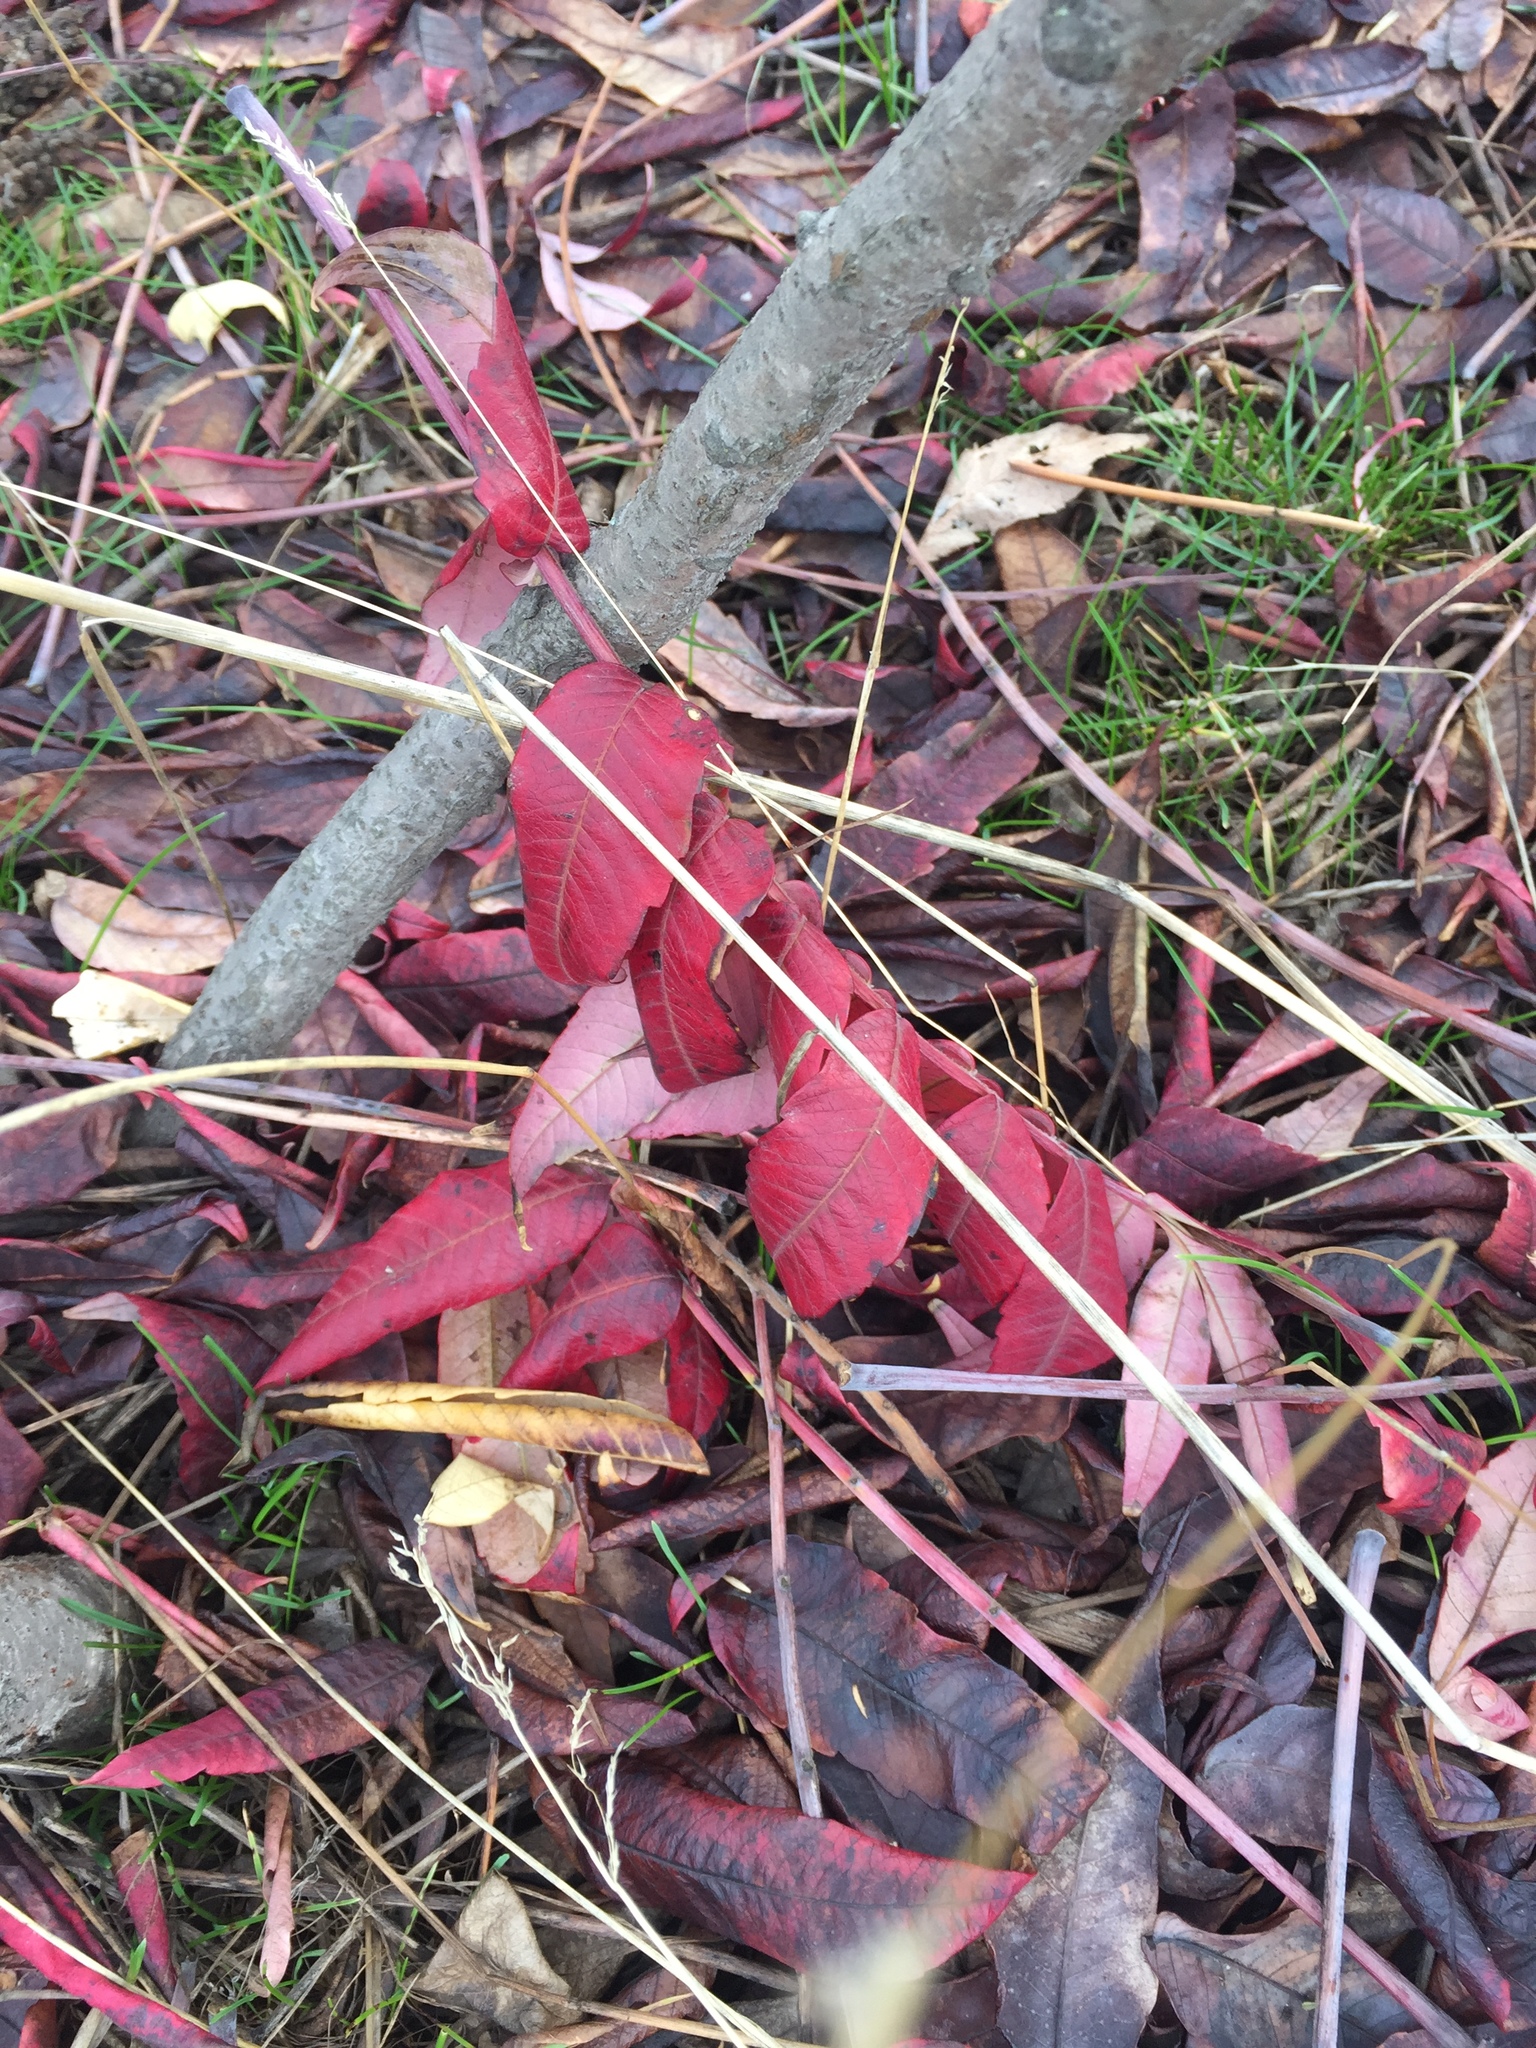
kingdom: Plantae
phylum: Tracheophyta
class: Magnoliopsida
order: Sapindales
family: Anacardiaceae
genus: Rhus
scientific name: Rhus glabra
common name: Scarlet sumac
